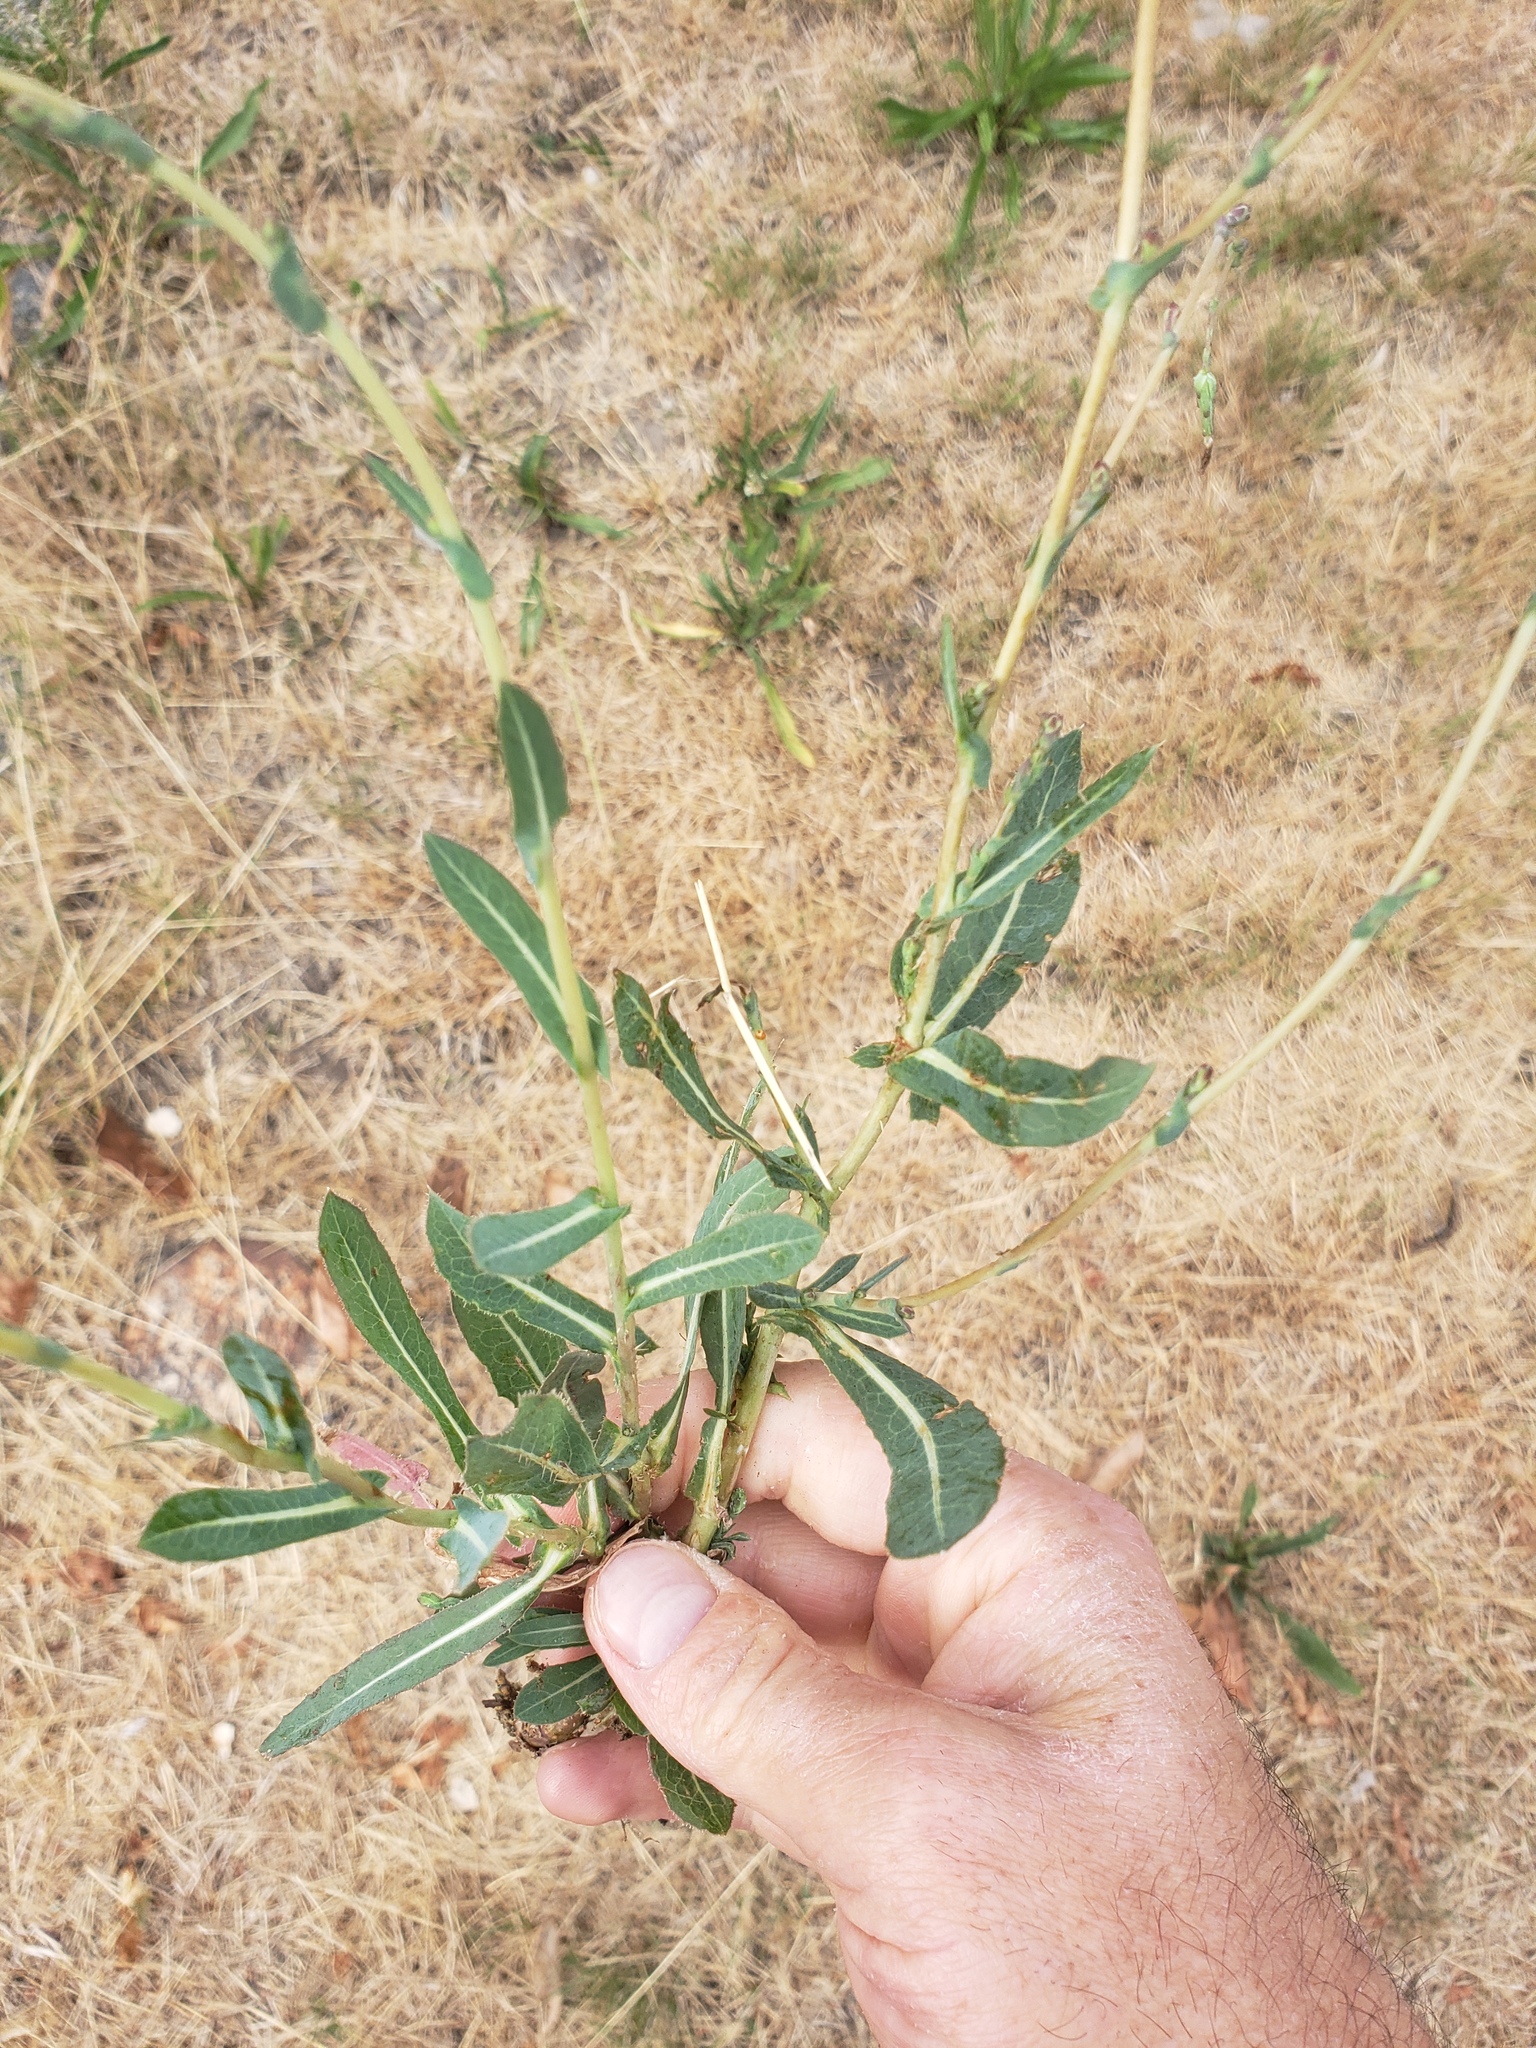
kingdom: Plantae
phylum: Tracheophyta
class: Magnoliopsida
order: Asterales
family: Asteraceae
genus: Lactuca
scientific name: Lactuca serriola
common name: Prickly lettuce
